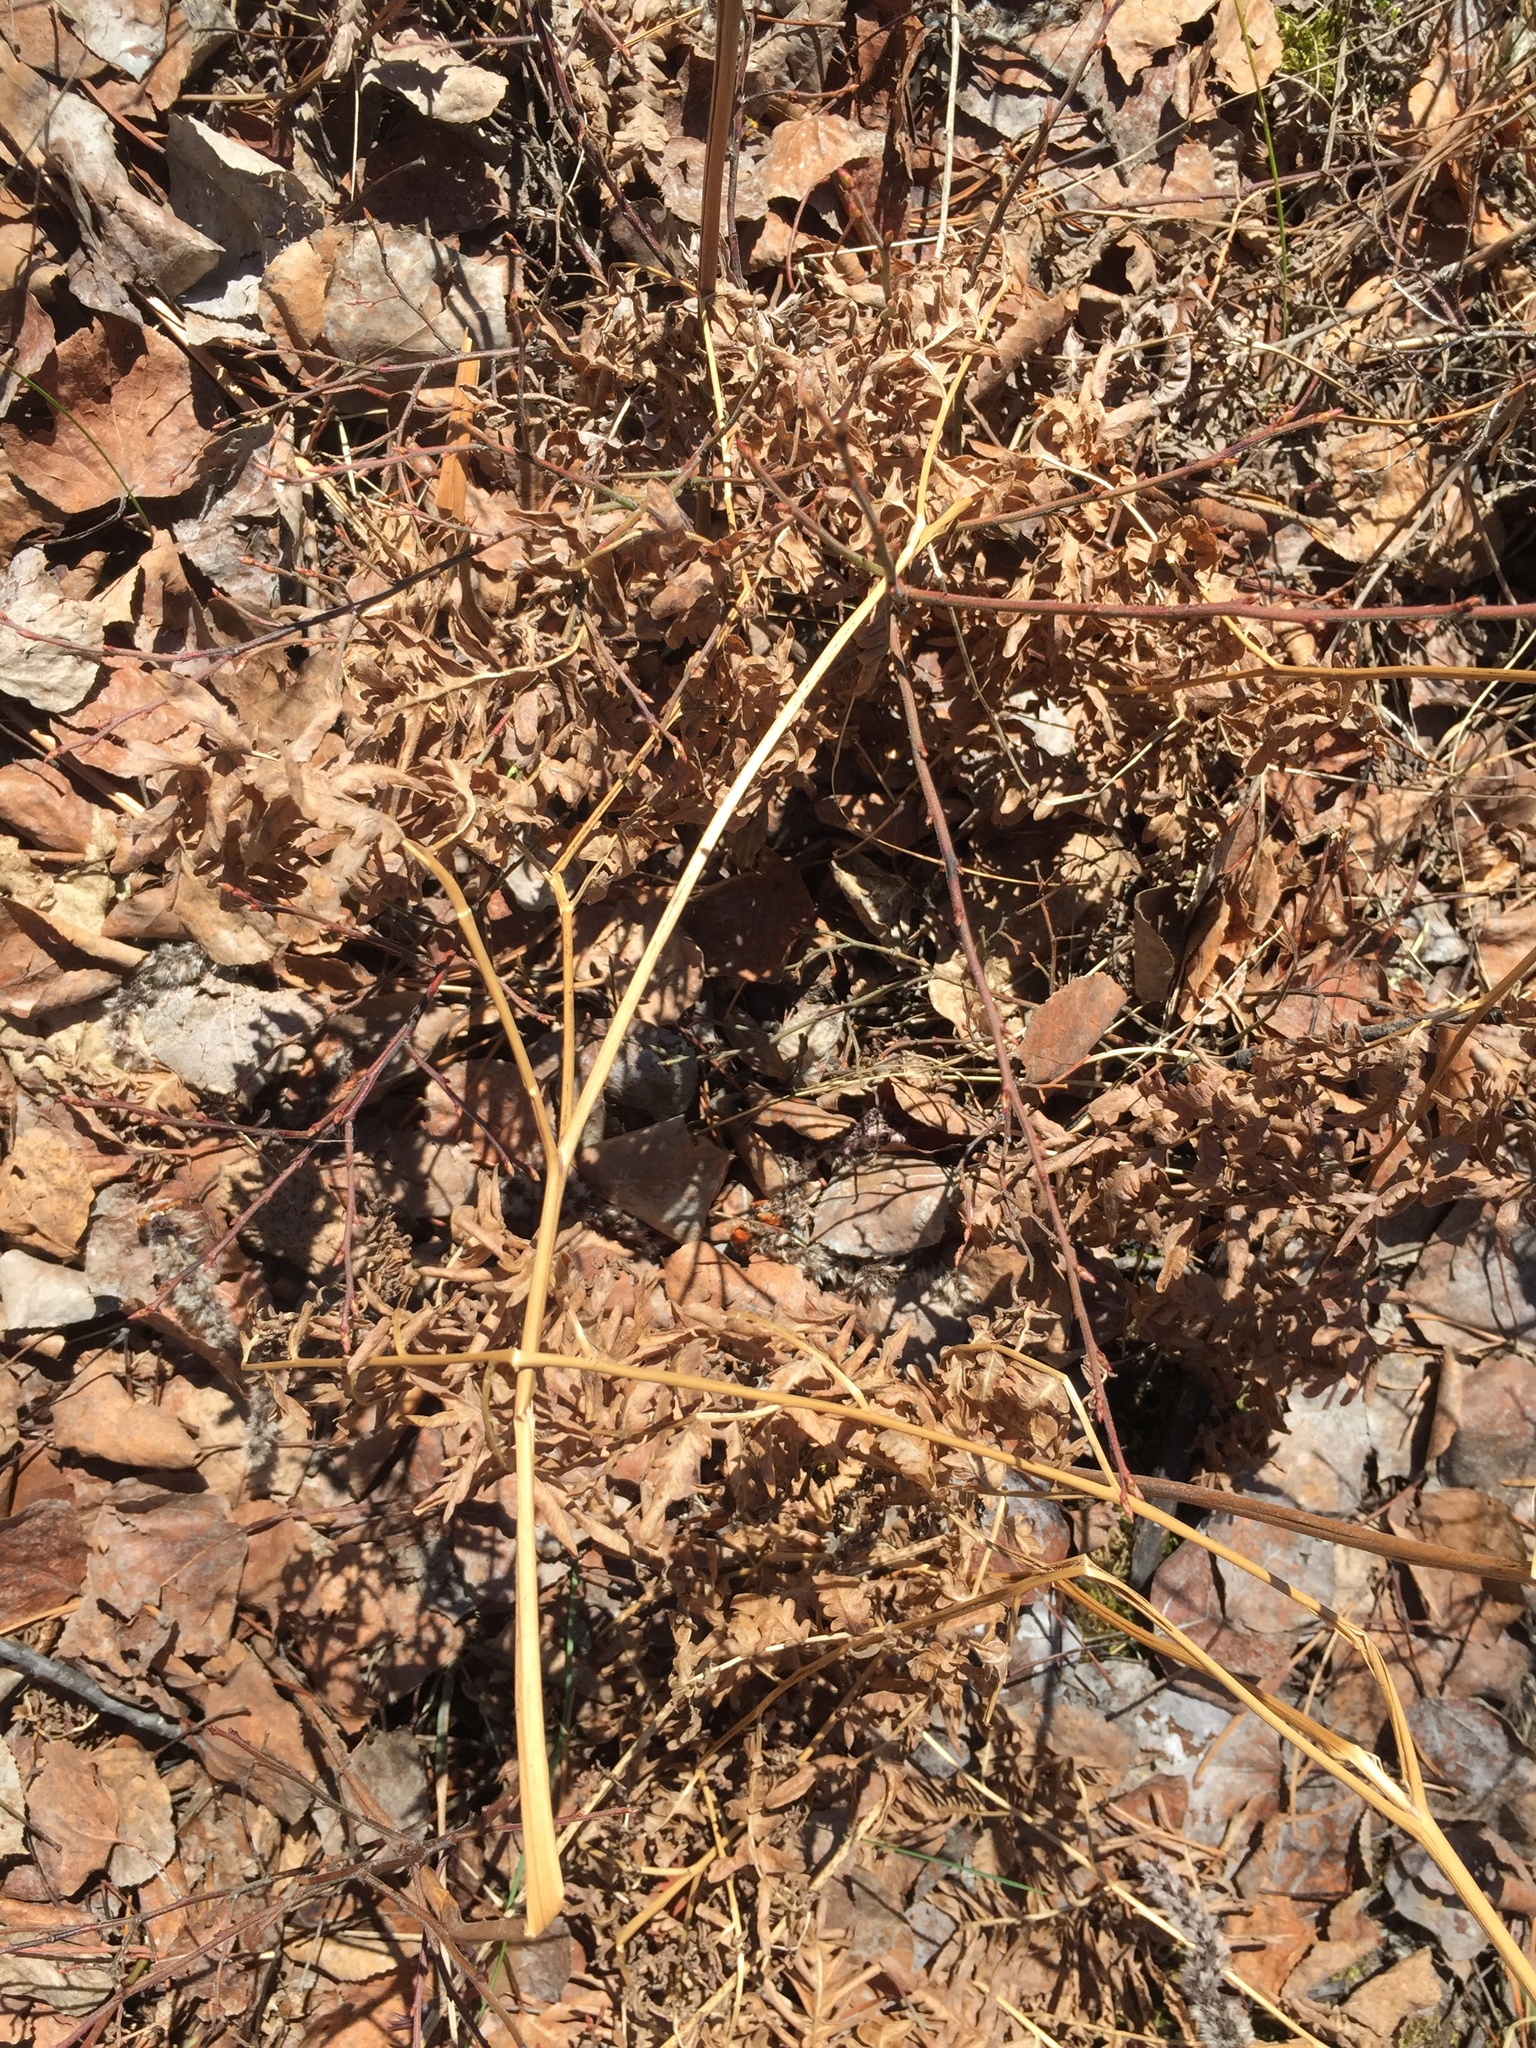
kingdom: Plantae
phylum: Tracheophyta
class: Polypodiopsida
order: Polypodiales
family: Dennstaedtiaceae
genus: Pteridium
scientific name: Pteridium aquilinum
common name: Bracken
